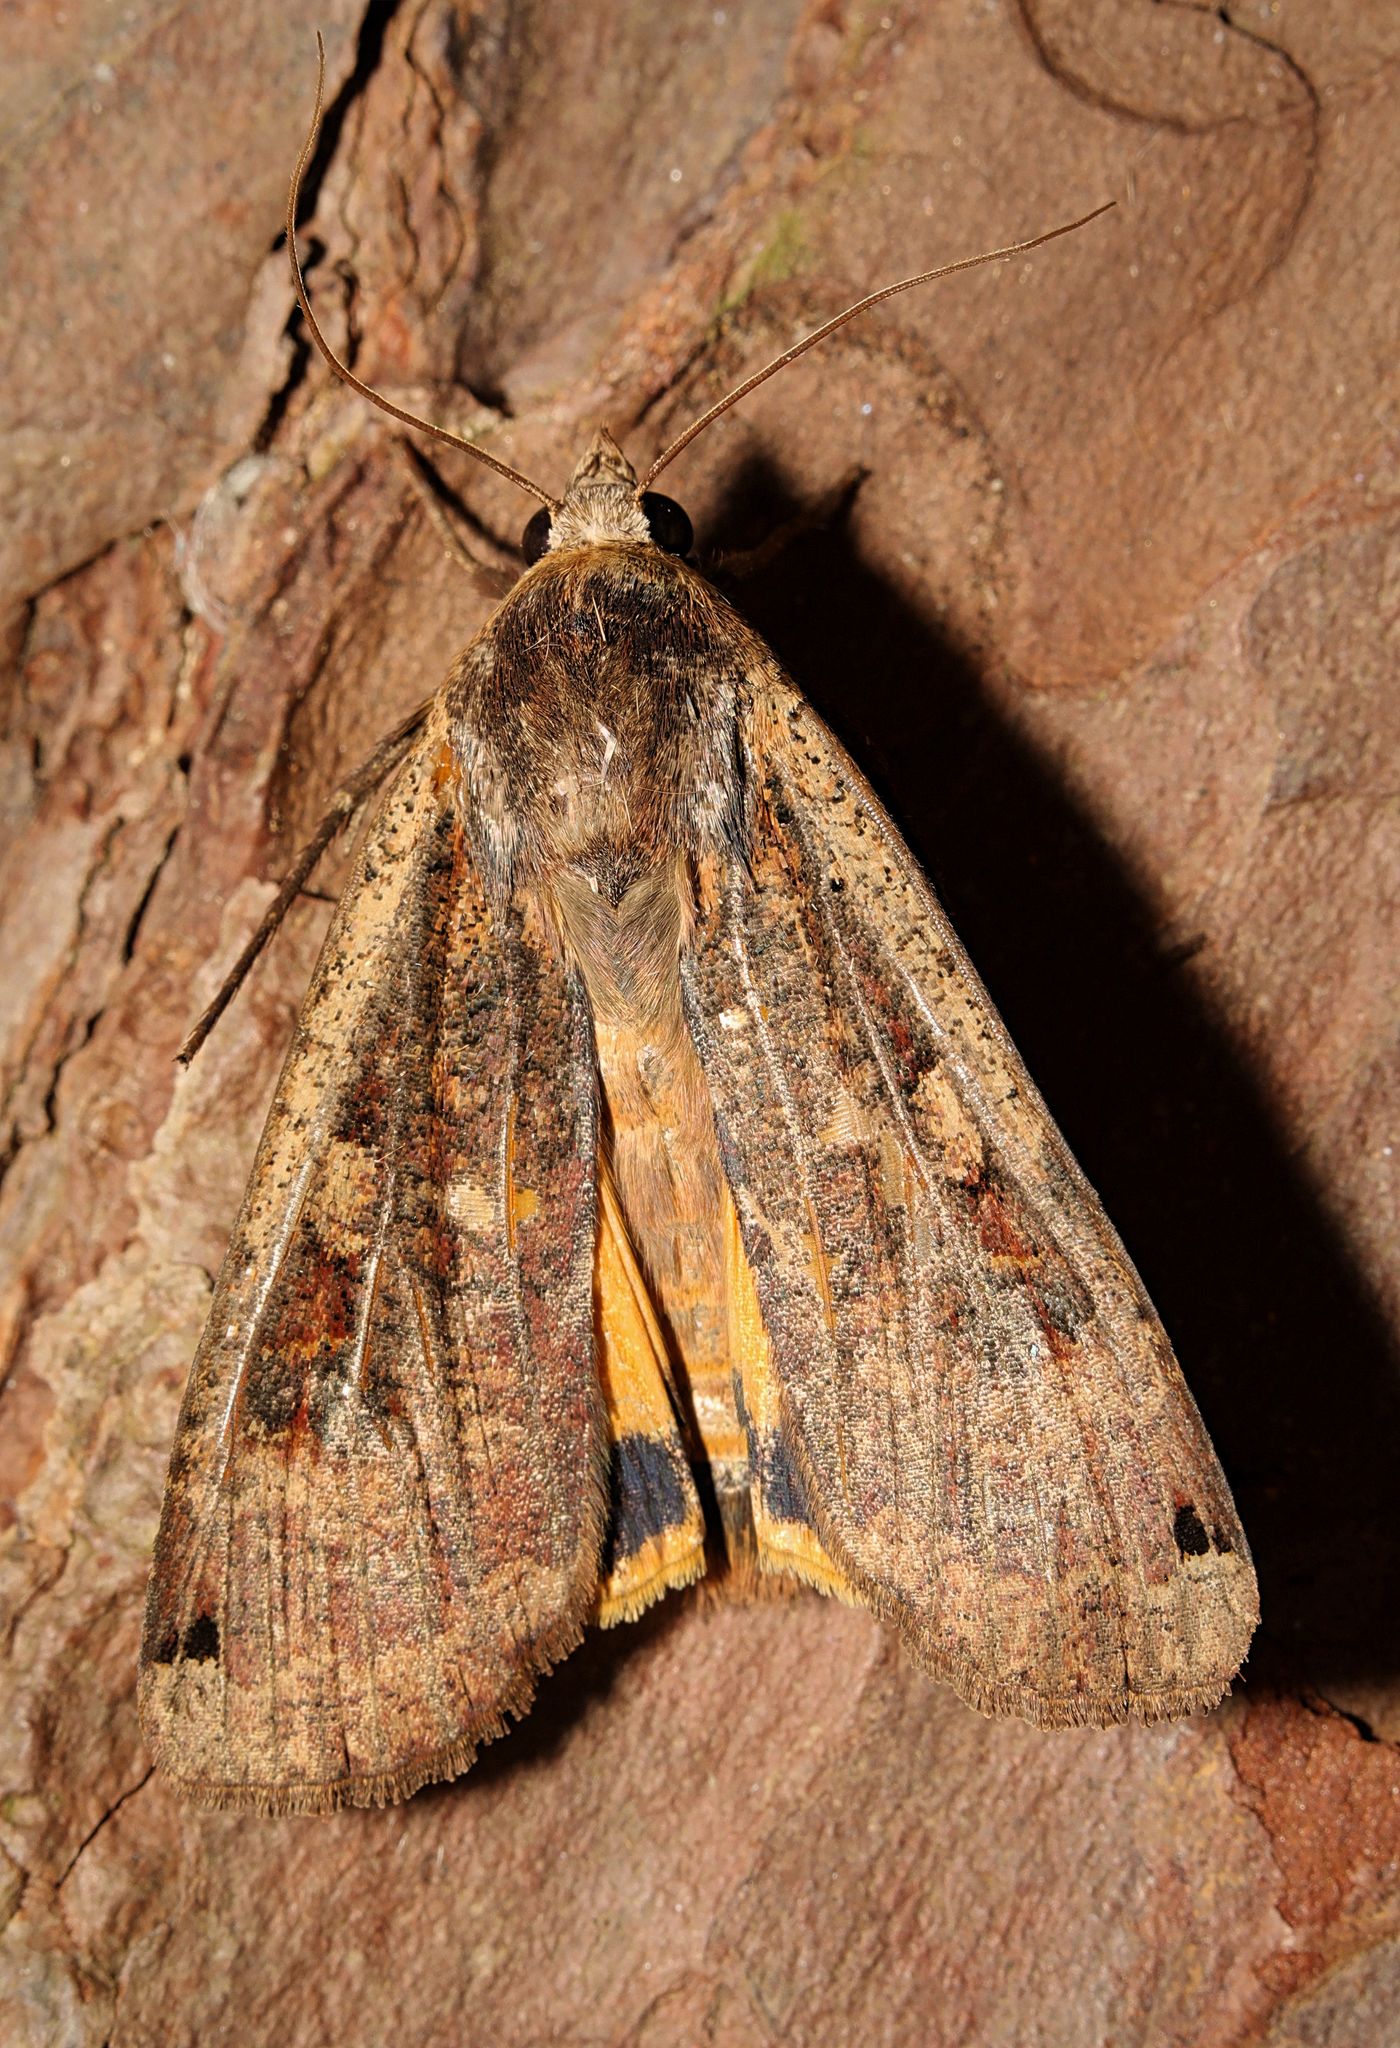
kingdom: Animalia
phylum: Arthropoda
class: Insecta
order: Lepidoptera
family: Noctuidae
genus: Noctua
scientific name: Noctua pronuba
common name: Large yellow underwing
